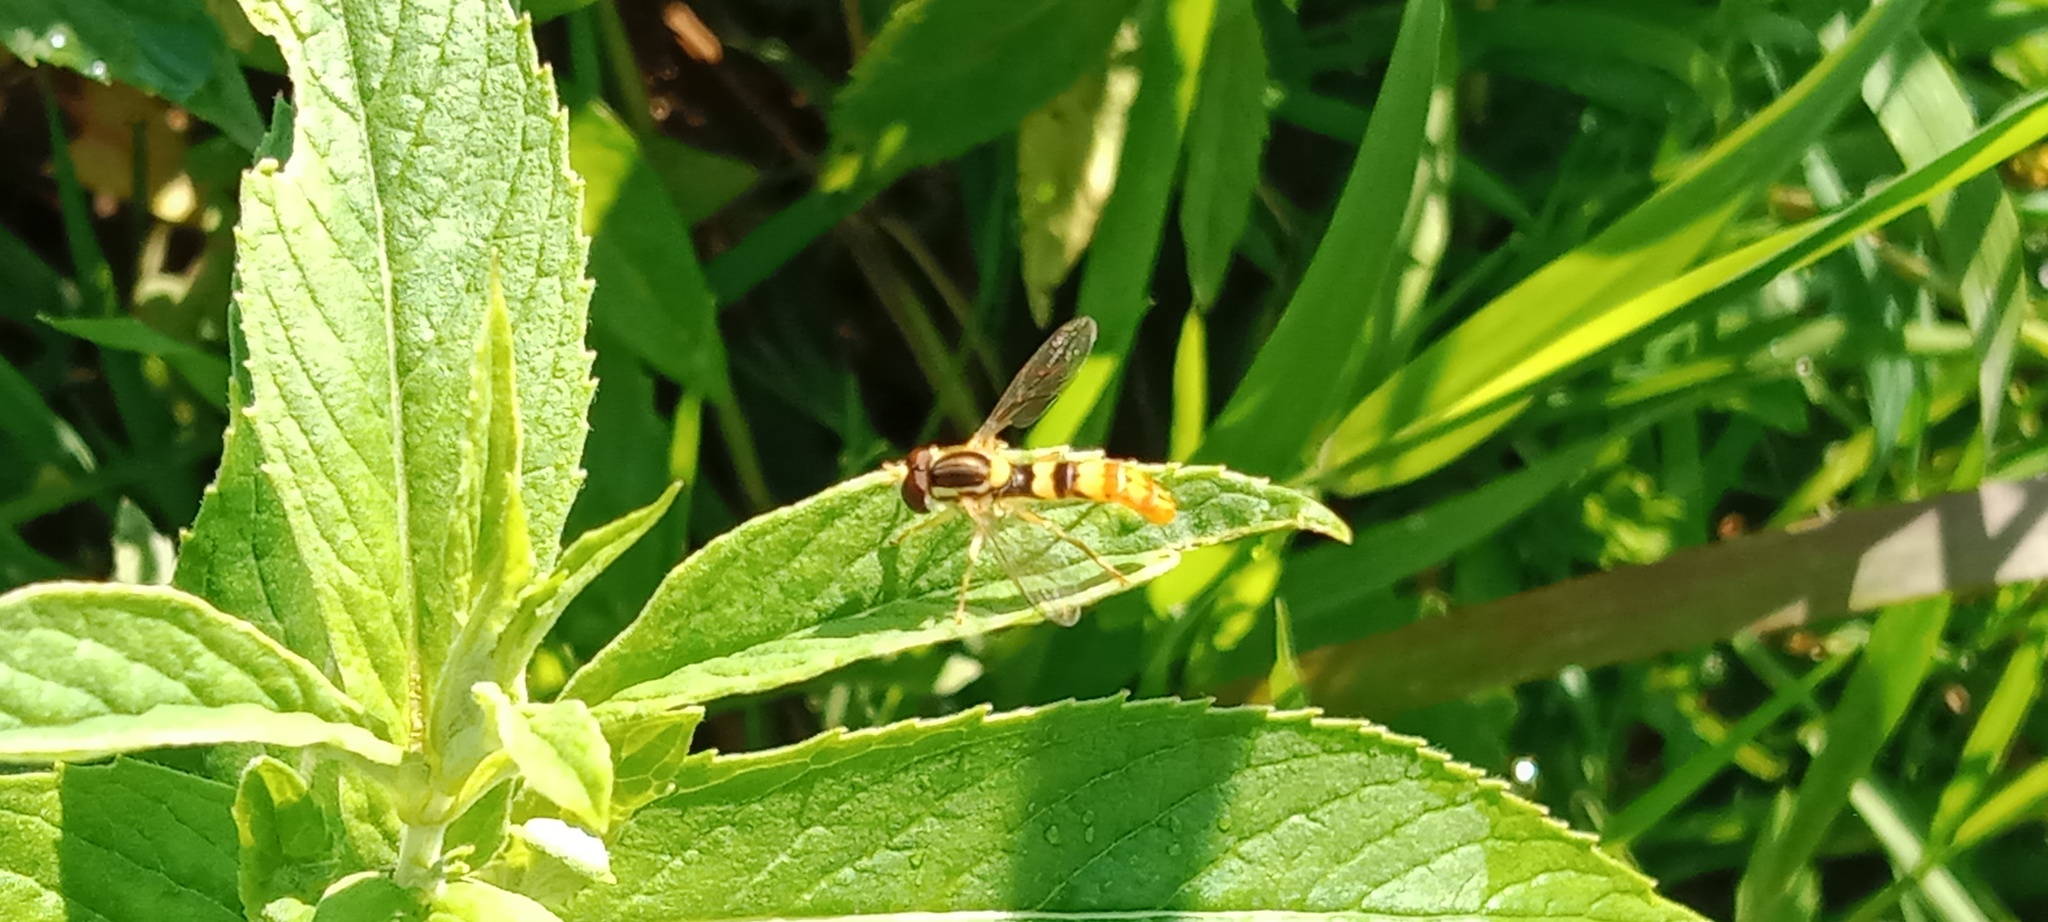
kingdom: Animalia
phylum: Arthropoda
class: Insecta
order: Diptera
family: Syrphidae
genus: Sphaerophoria
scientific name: Sphaerophoria scripta
